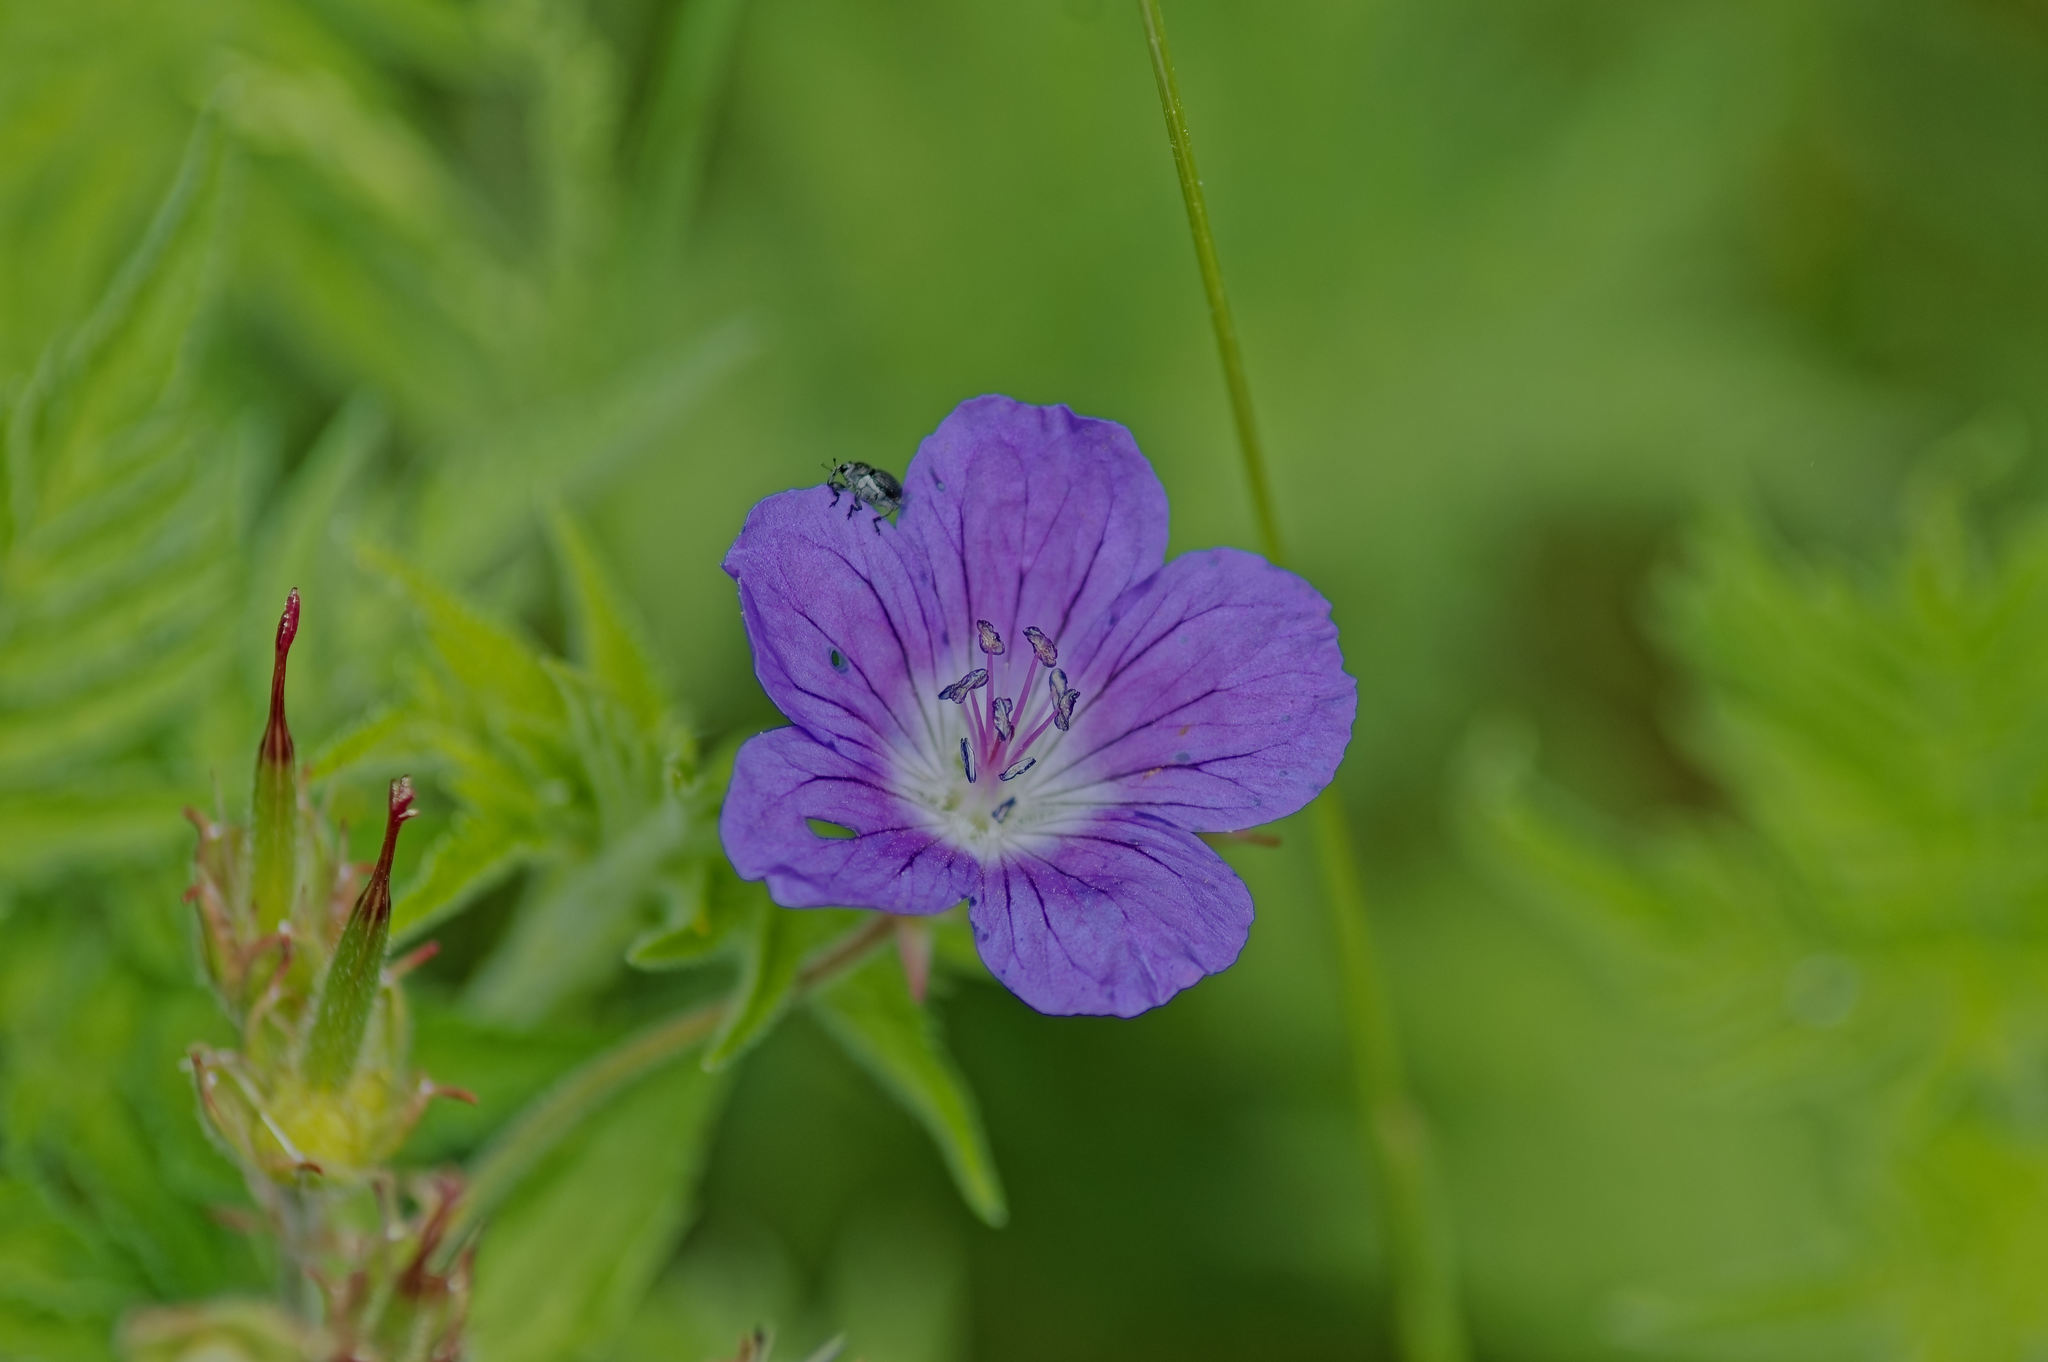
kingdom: Plantae
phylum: Tracheophyta
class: Magnoliopsida
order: Geraniales
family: Geraniaceae
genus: Geranium
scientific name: Geranium sylvaticum
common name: Wood crane's-bill
